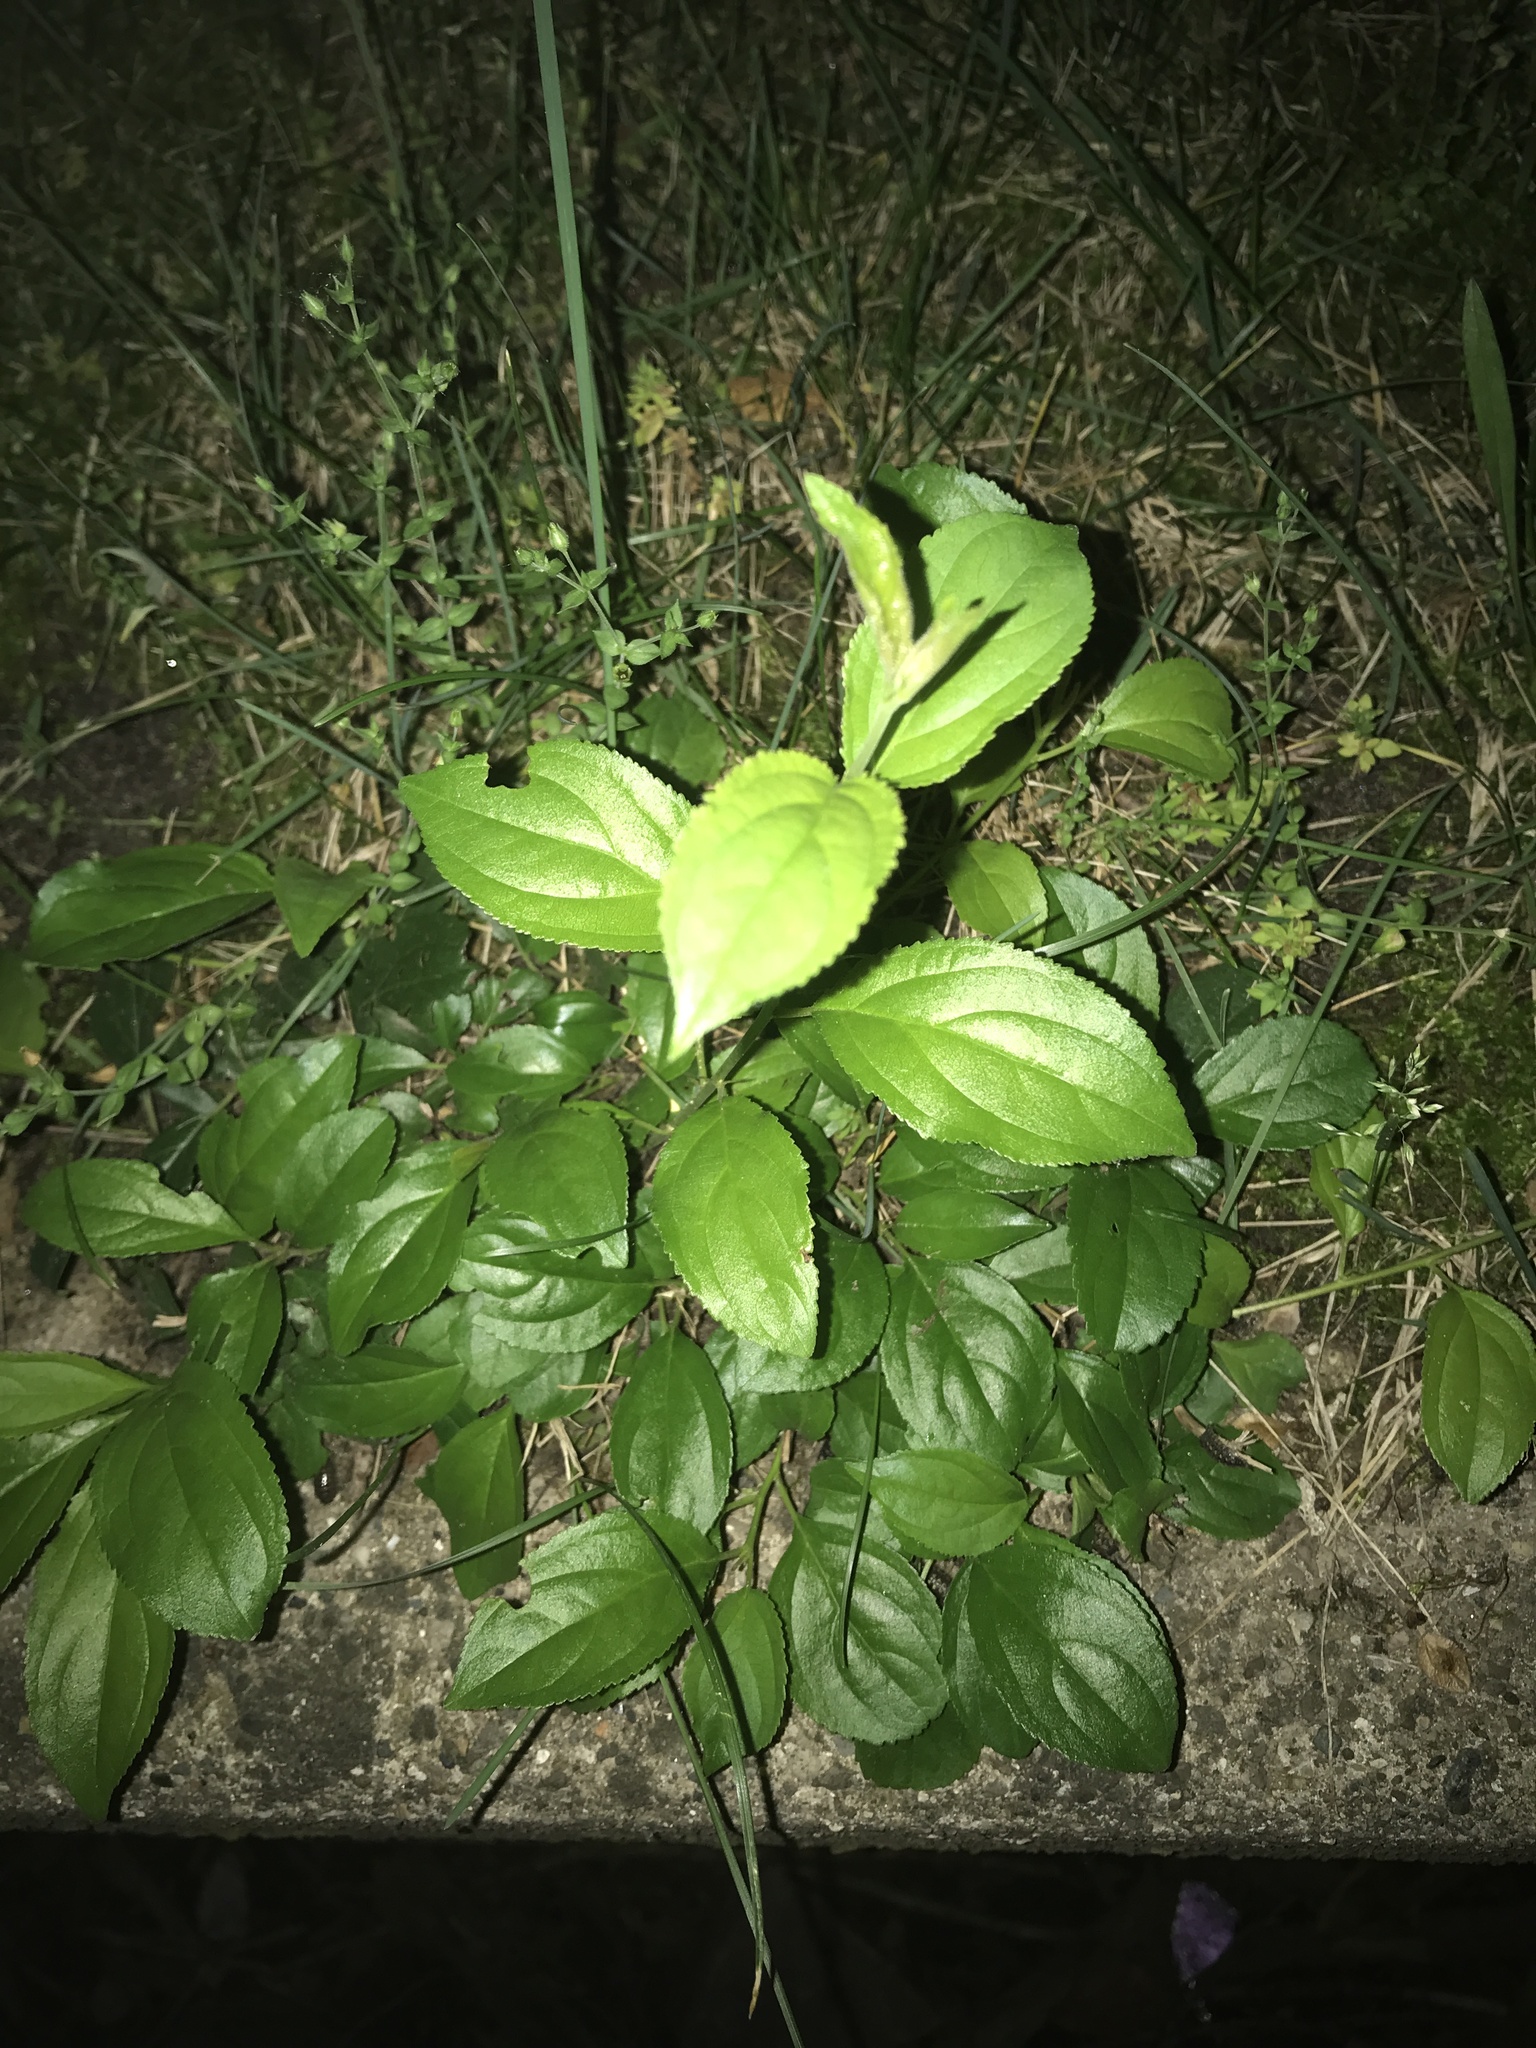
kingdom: Plantae
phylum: Tracheophyta
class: Magnoliopsida
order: Rosales
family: Rhamnaceae
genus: Rhamnus
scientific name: Rhamnus cathartica
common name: Common buckthorn
